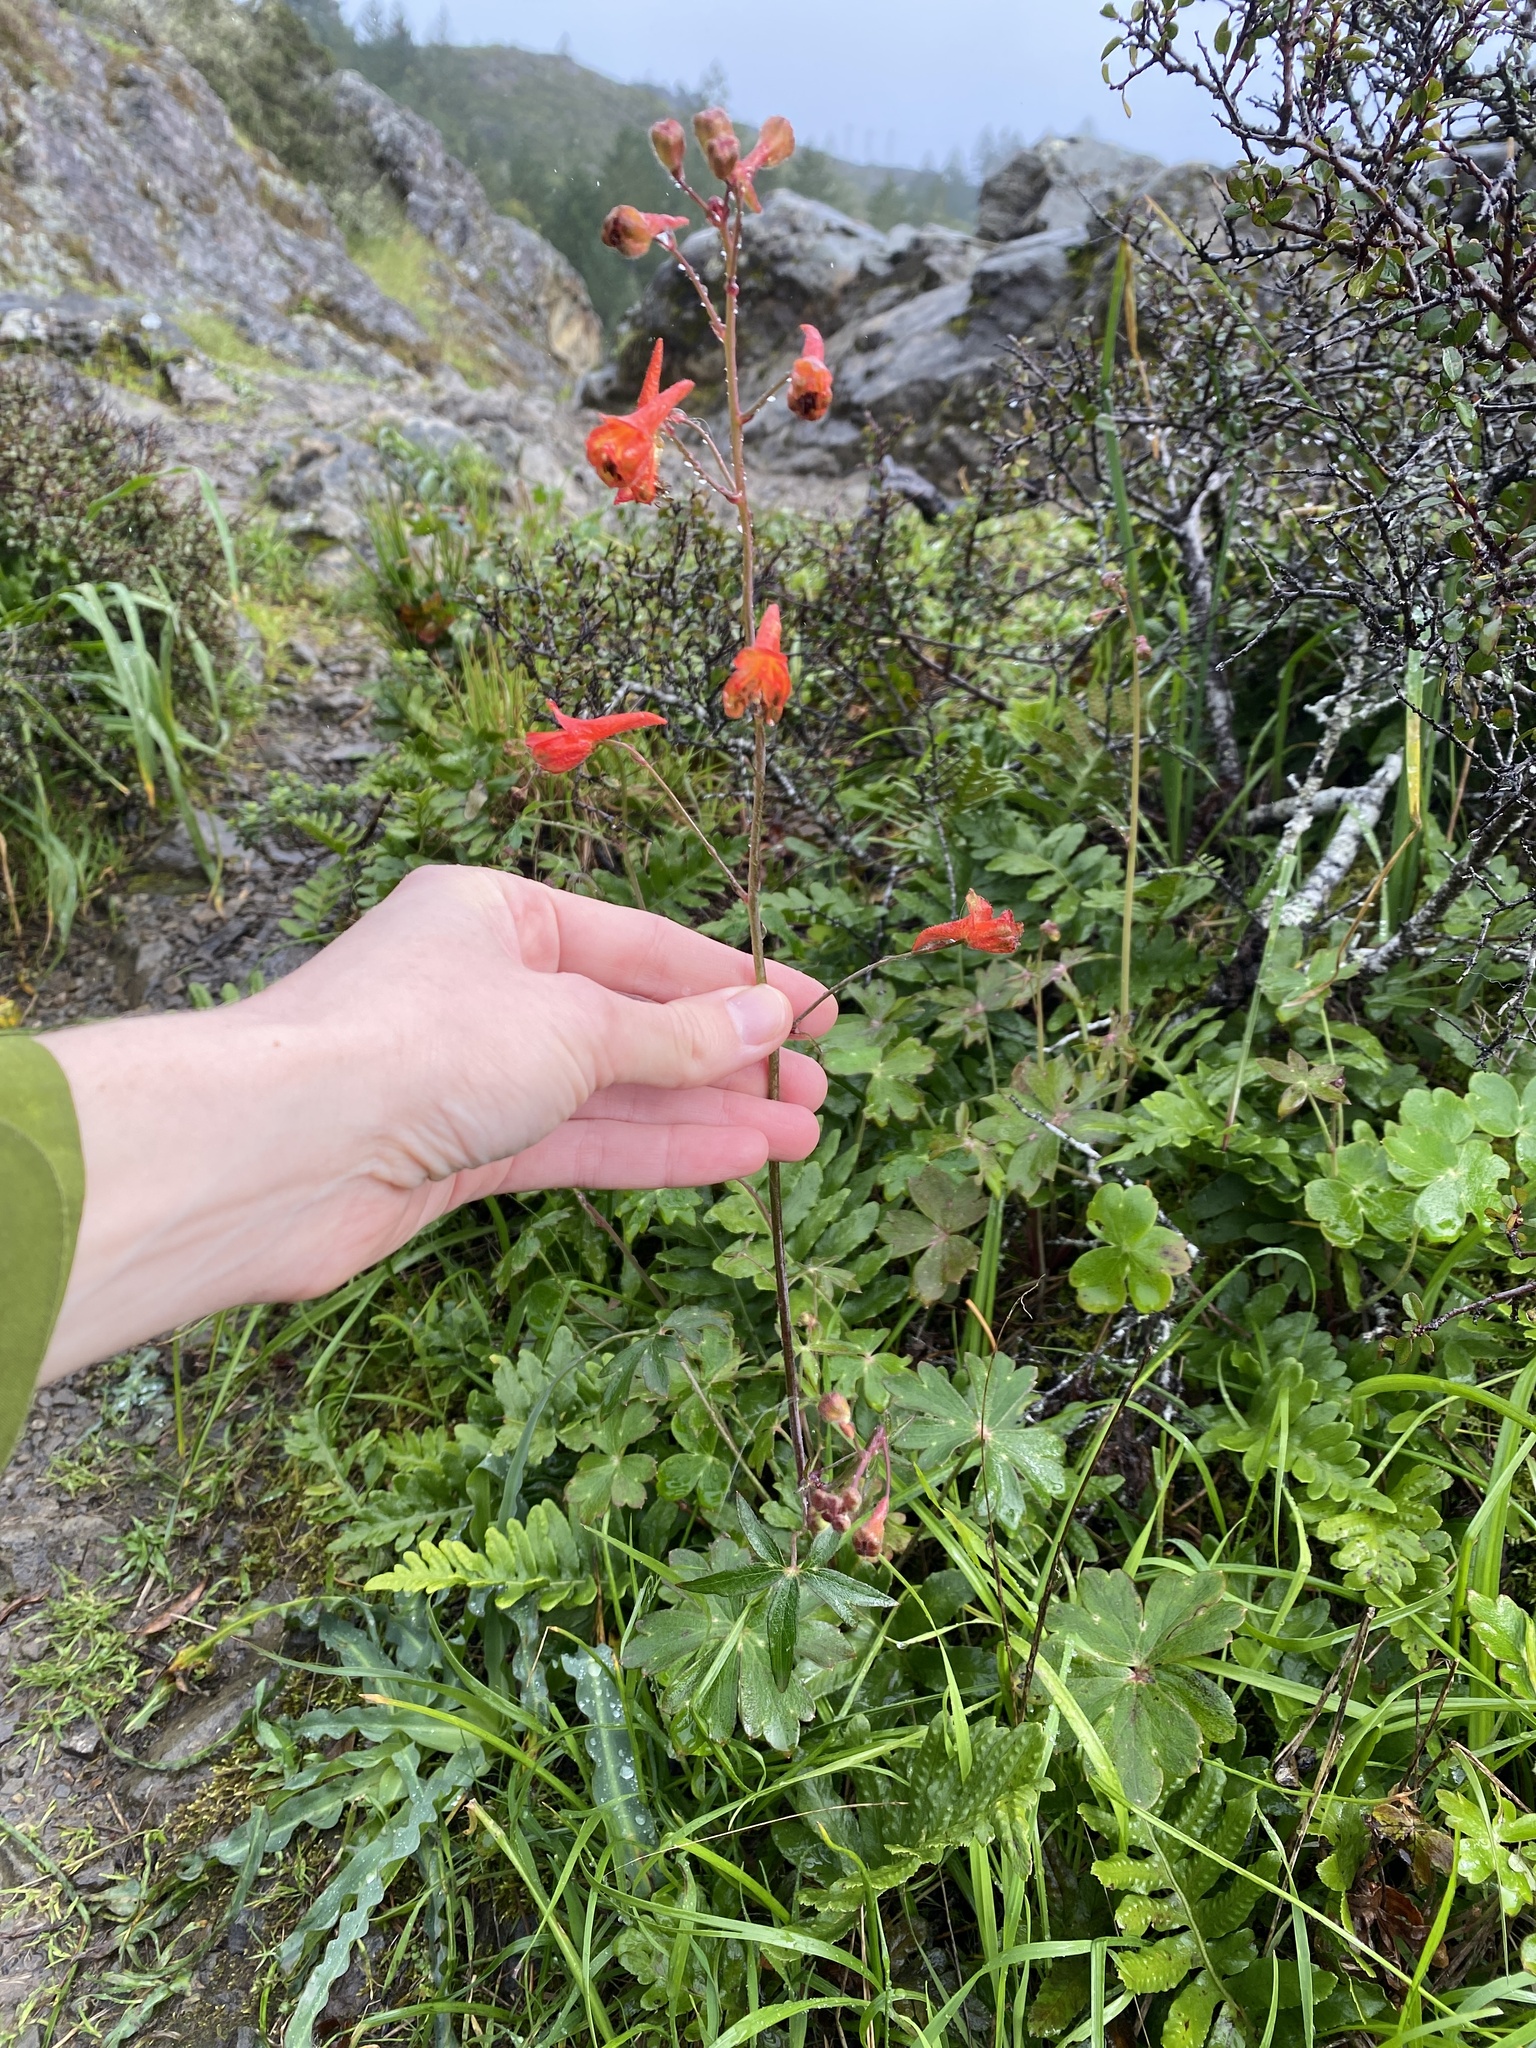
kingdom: Plantae
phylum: Tracheophyta
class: Magnoliopsida
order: Ranunculales
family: Ranunculaceae
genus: Delphinium
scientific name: Delphinium nudicaule
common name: Red larkspur
